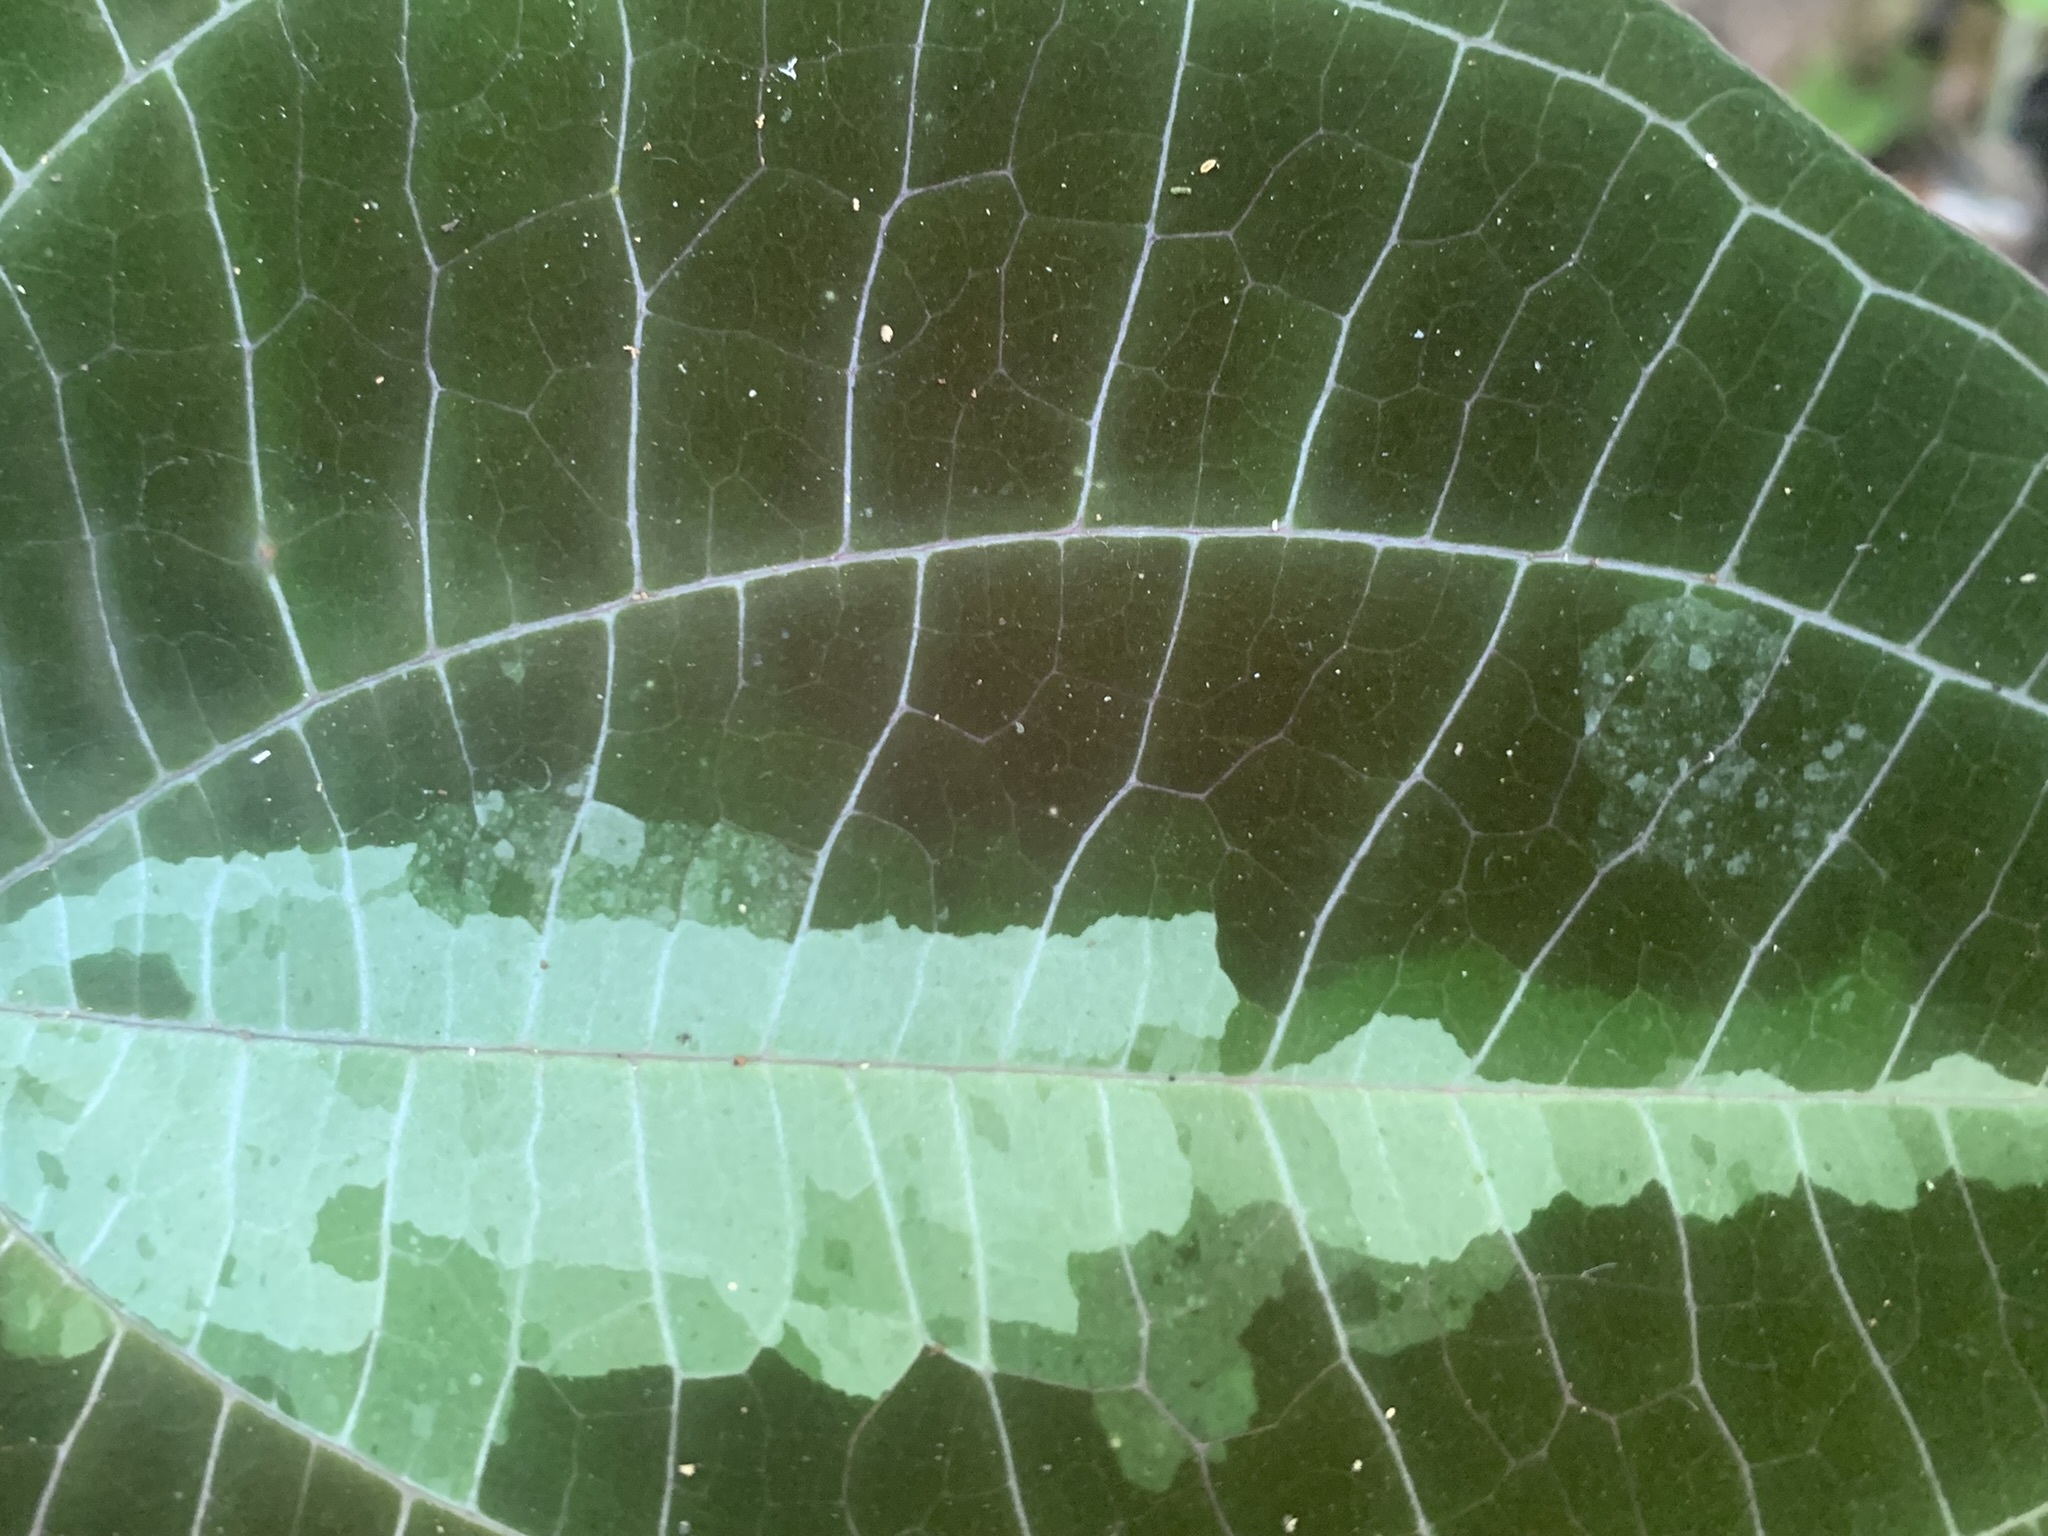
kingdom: Plantae
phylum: Tracheophyta
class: Liliopsida
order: Dioscoreales
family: Dioscoreaceae
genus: Dioscorea
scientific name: Dioscorea dodecaneura
